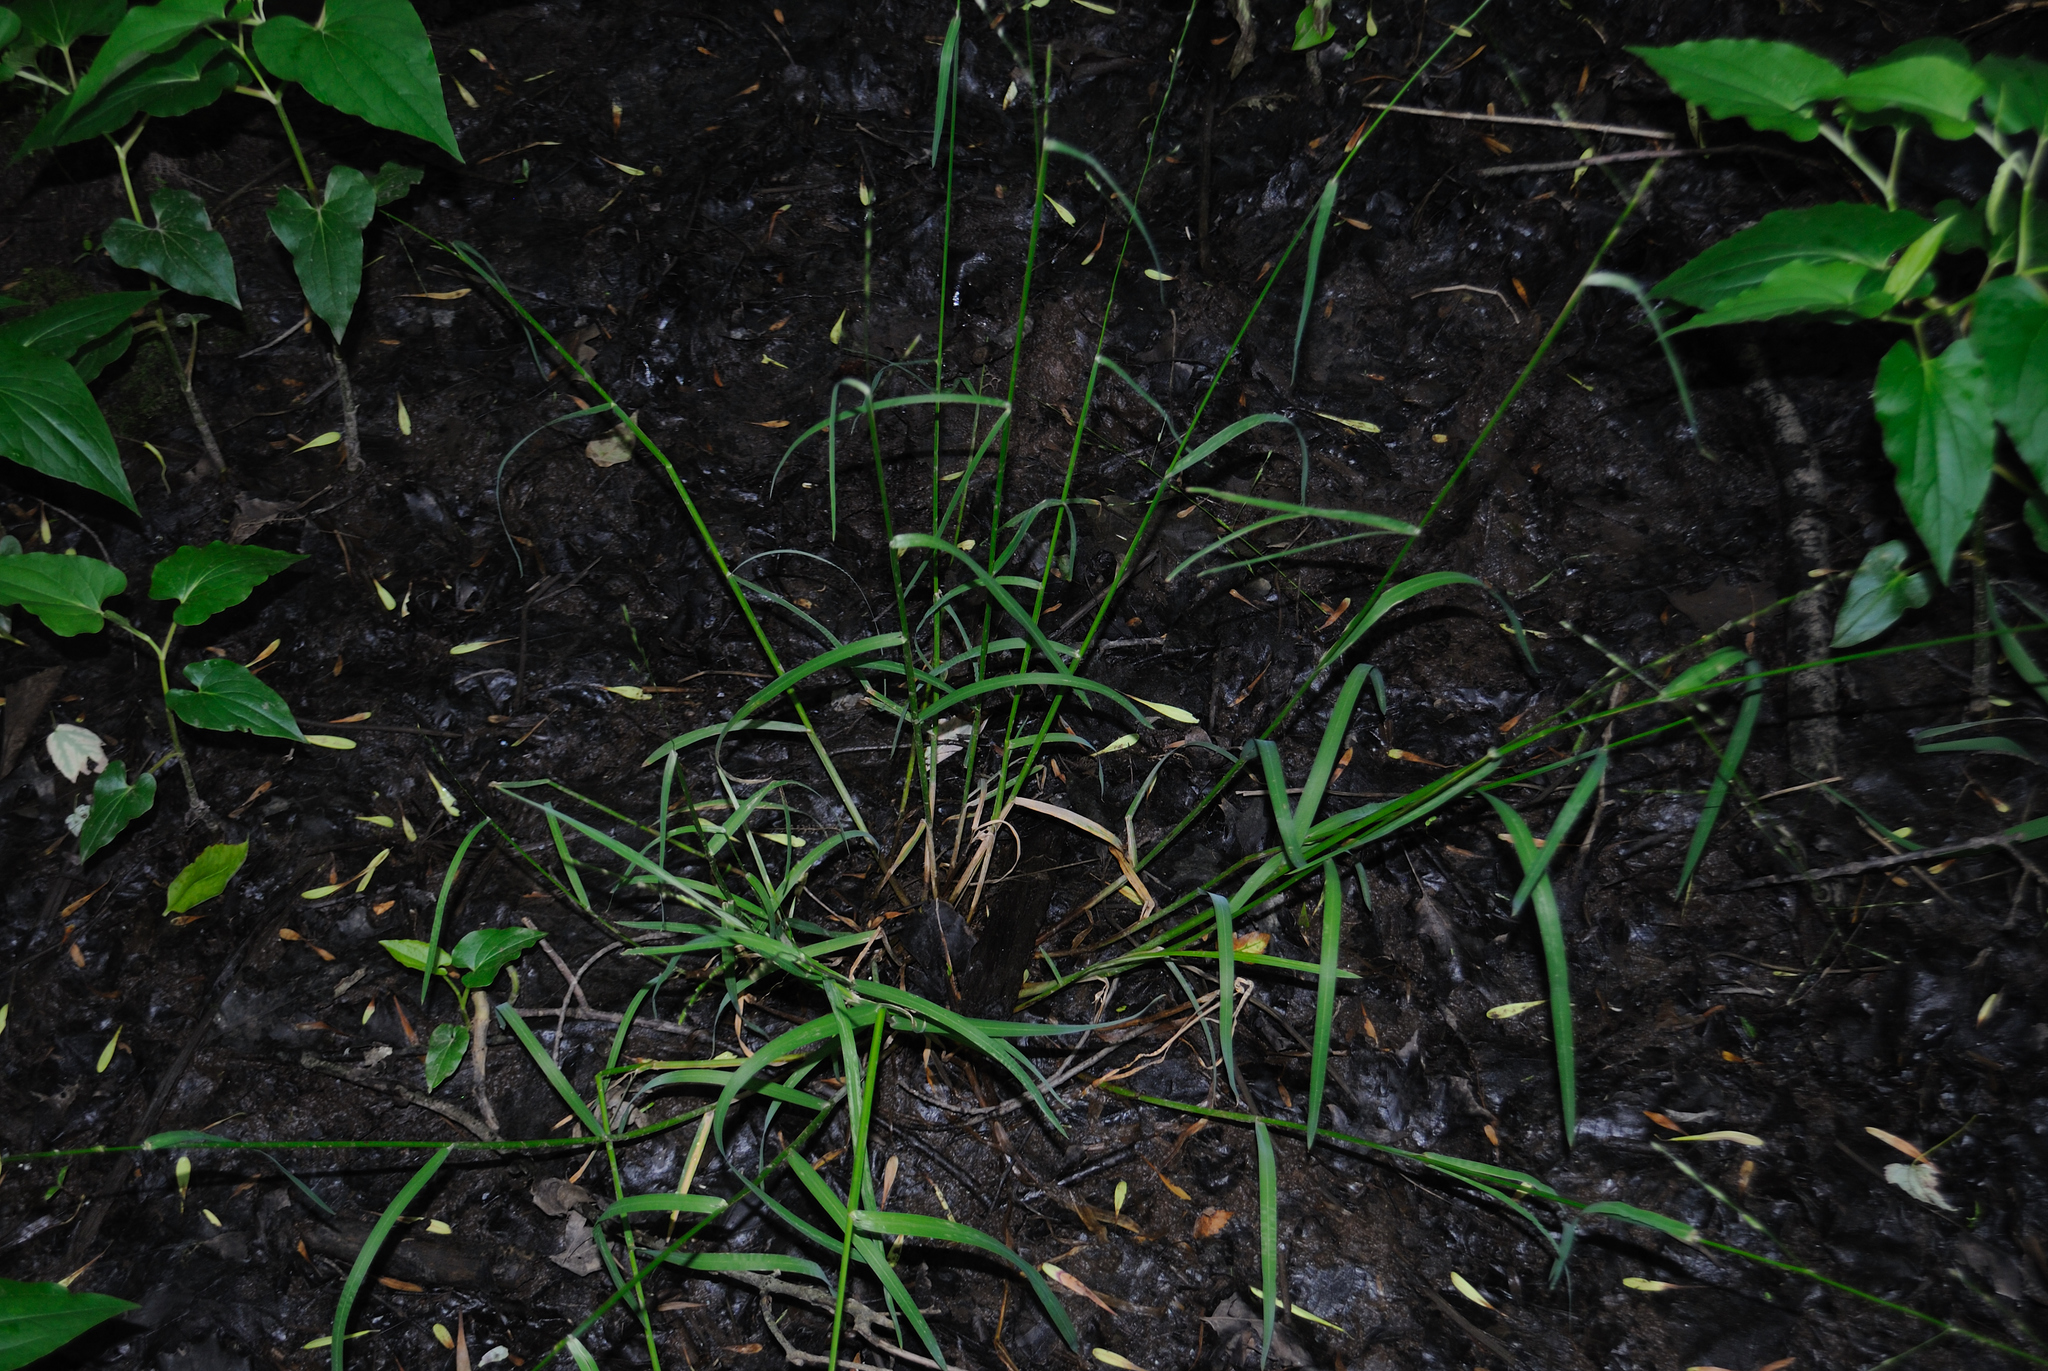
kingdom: Plantae
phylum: Tracheophyta
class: Liliopsida
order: Poales
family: Poaceae
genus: Glyceria
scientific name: Glyceria septentrionalis
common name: Eastern mannagrass
